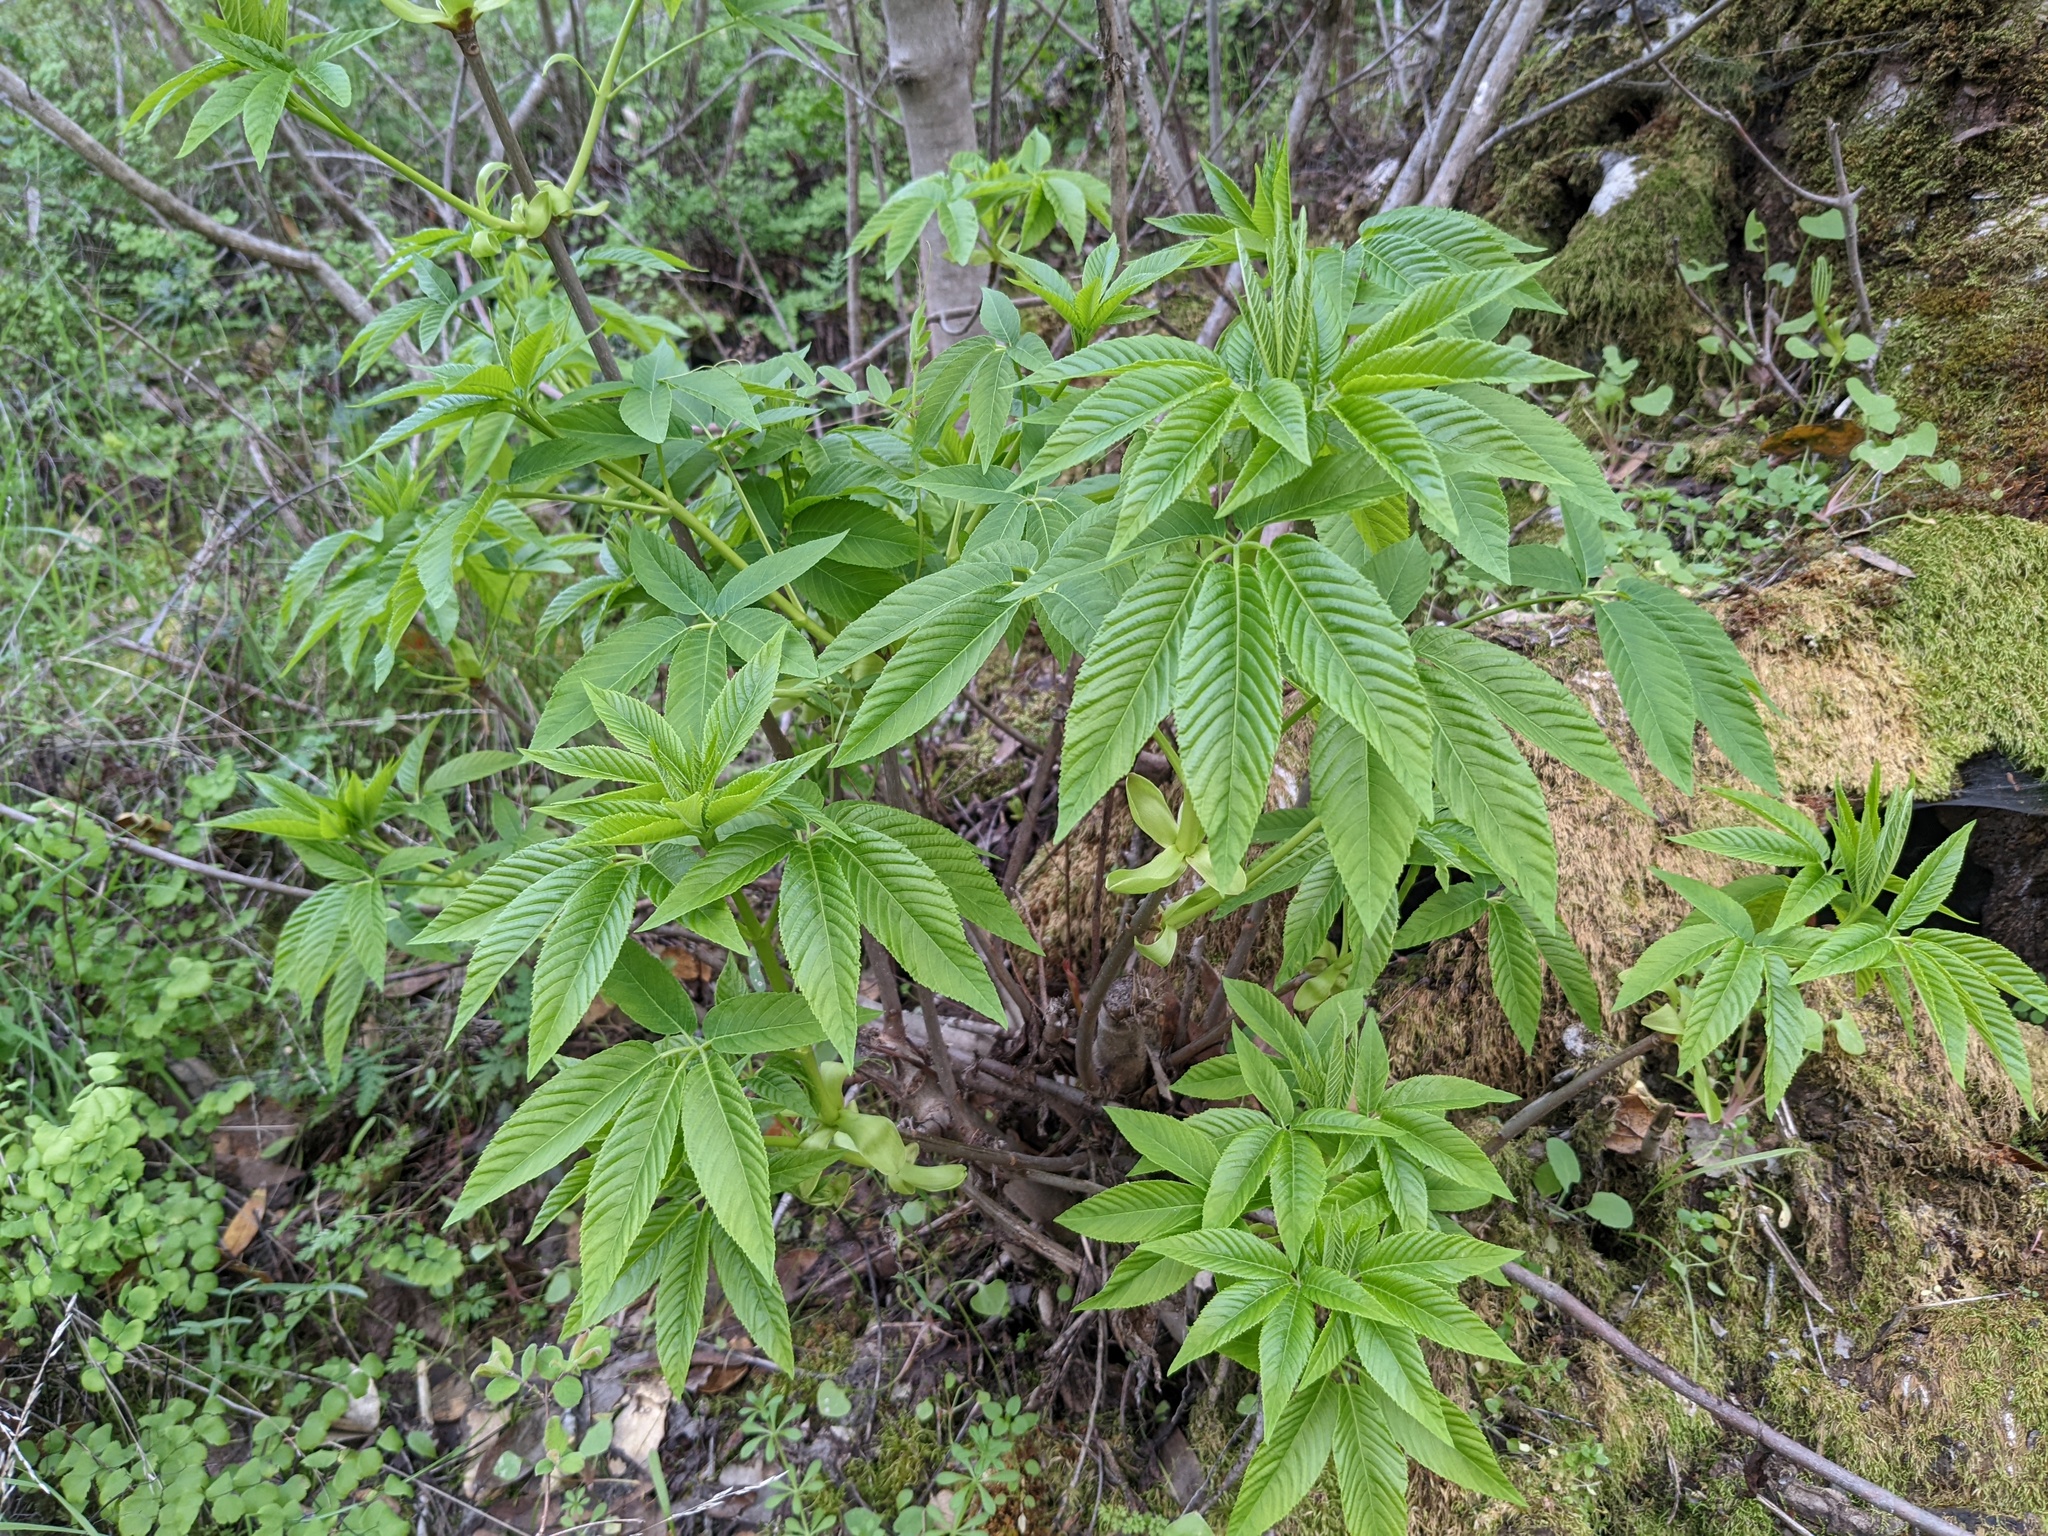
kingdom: Plantae
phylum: Tracheophyta
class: Magnoliopsida
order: Sapindales
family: Sapindaceae
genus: Aesculus
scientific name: Aesculus californica
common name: California buckeye
